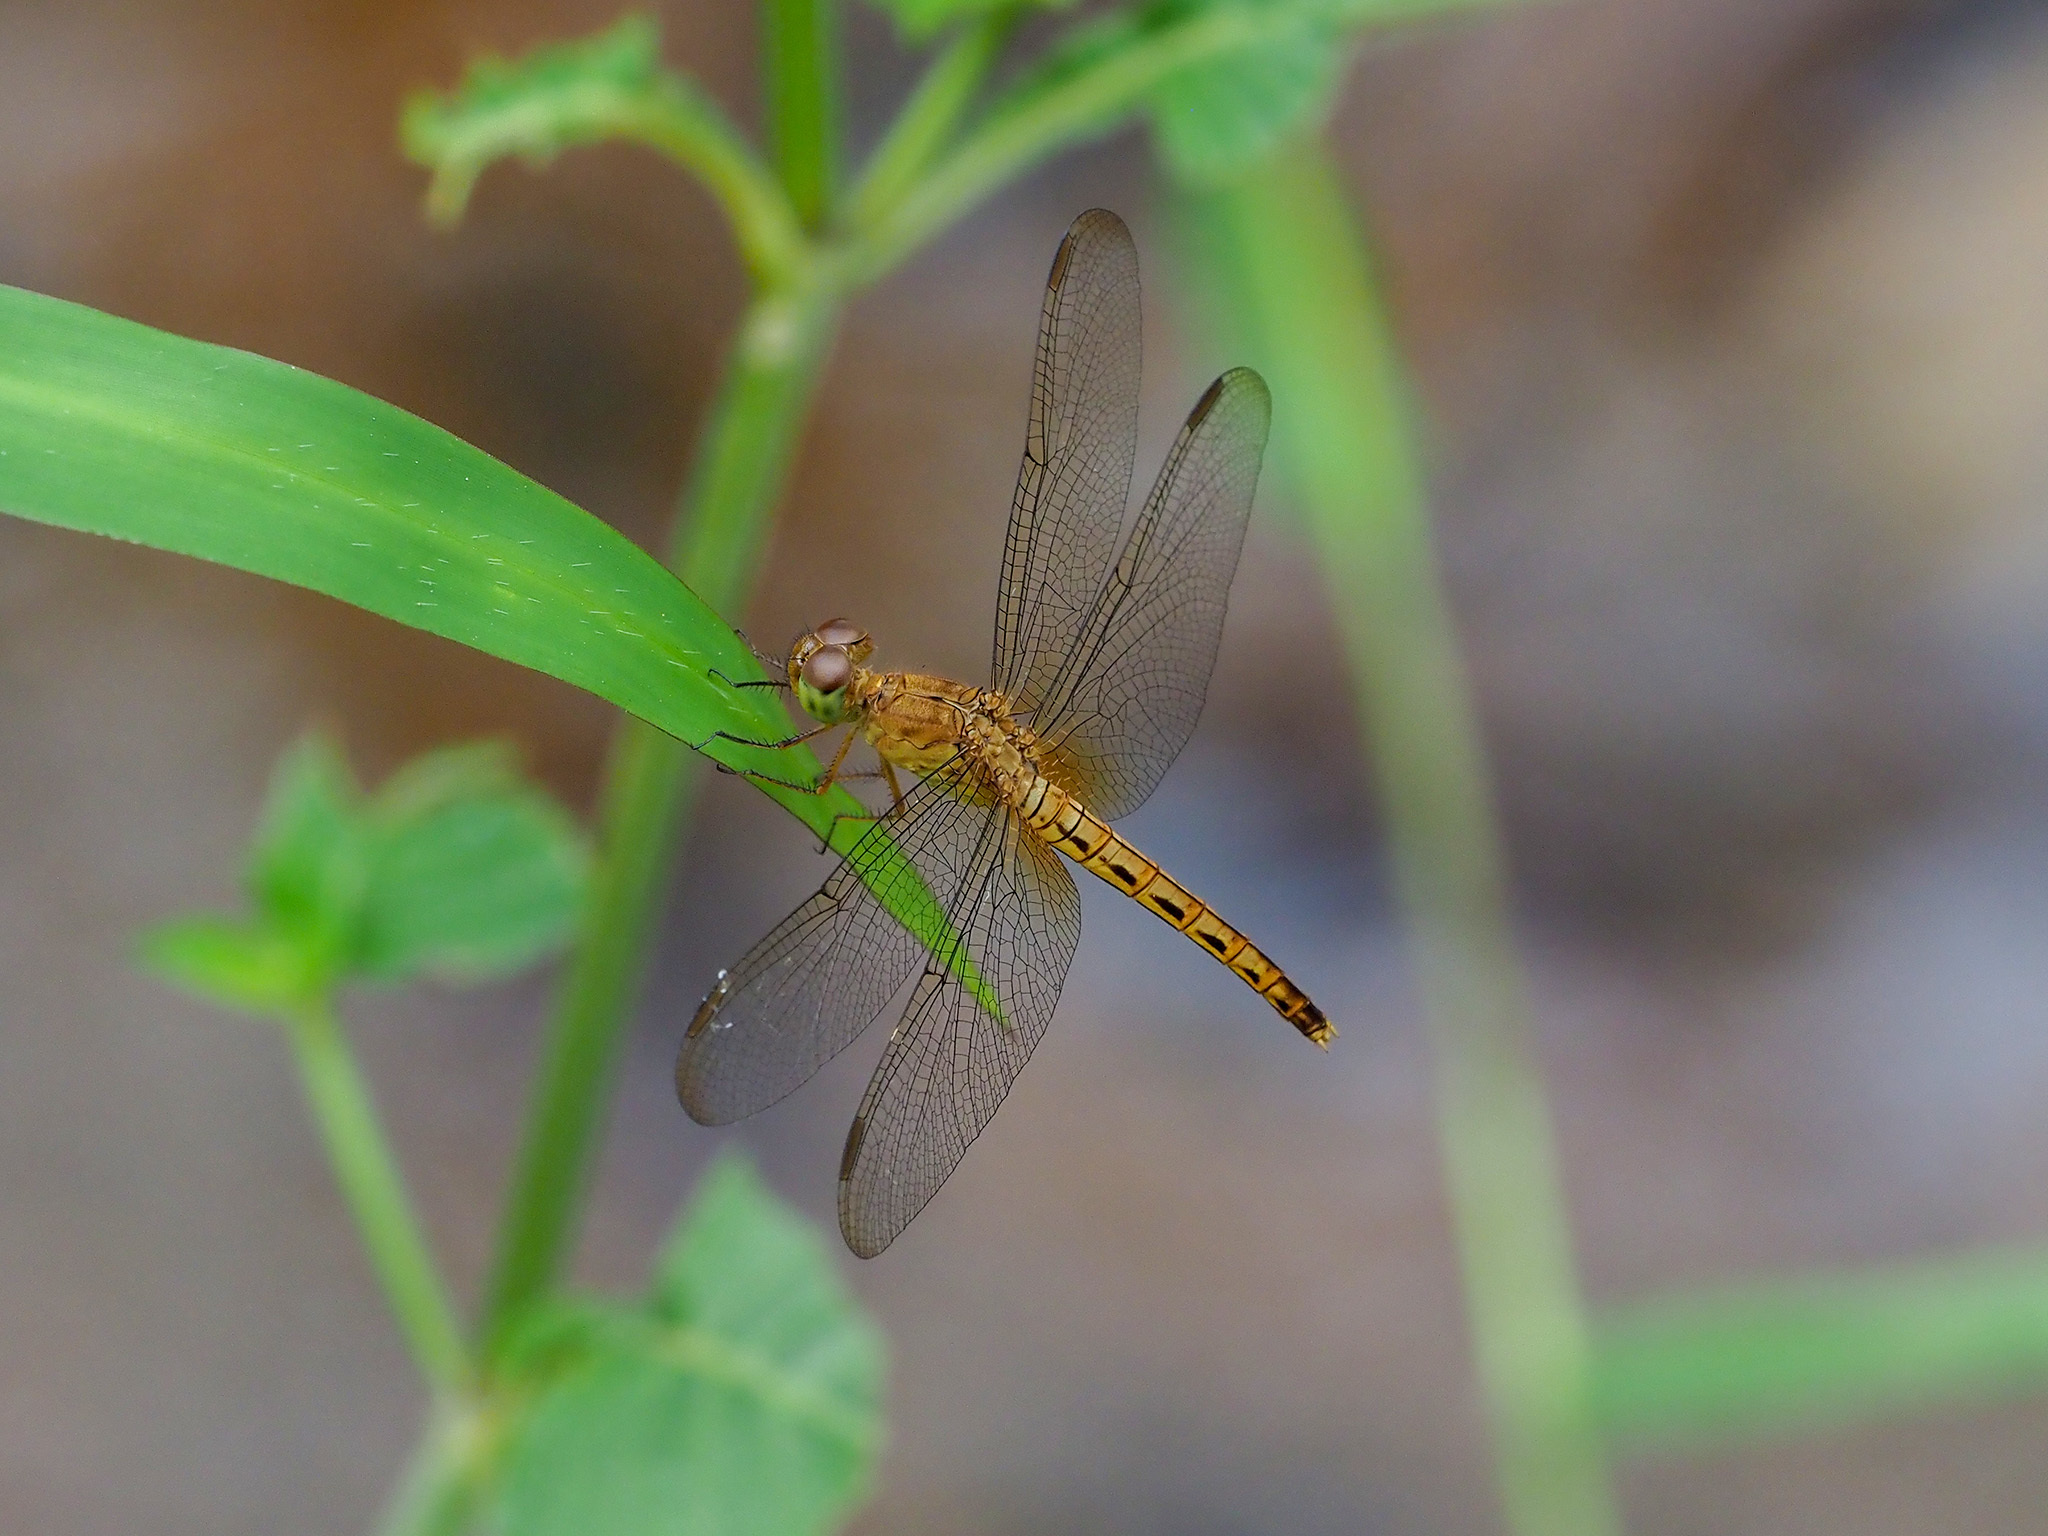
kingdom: Animalia
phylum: Arthropoda
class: Insecta
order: Odonata
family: Libellulidae
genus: Neurothemis
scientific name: Neurothemis fluctuans
